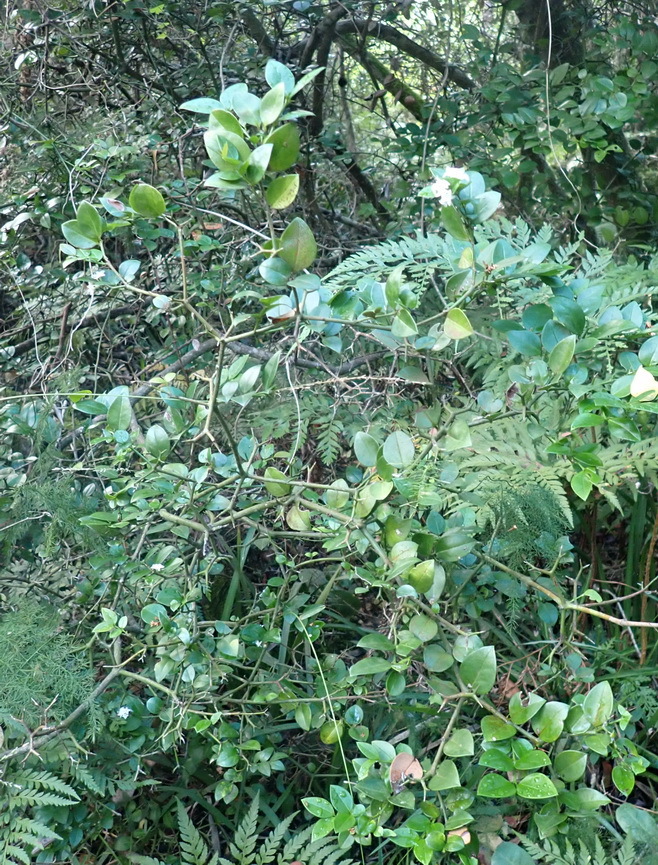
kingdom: Plantae
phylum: Tracheophyta
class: Magnoliopsida
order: Gentianales
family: Apocynaceae
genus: Carissa
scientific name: Carissa bispinosa
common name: Forest num-num
